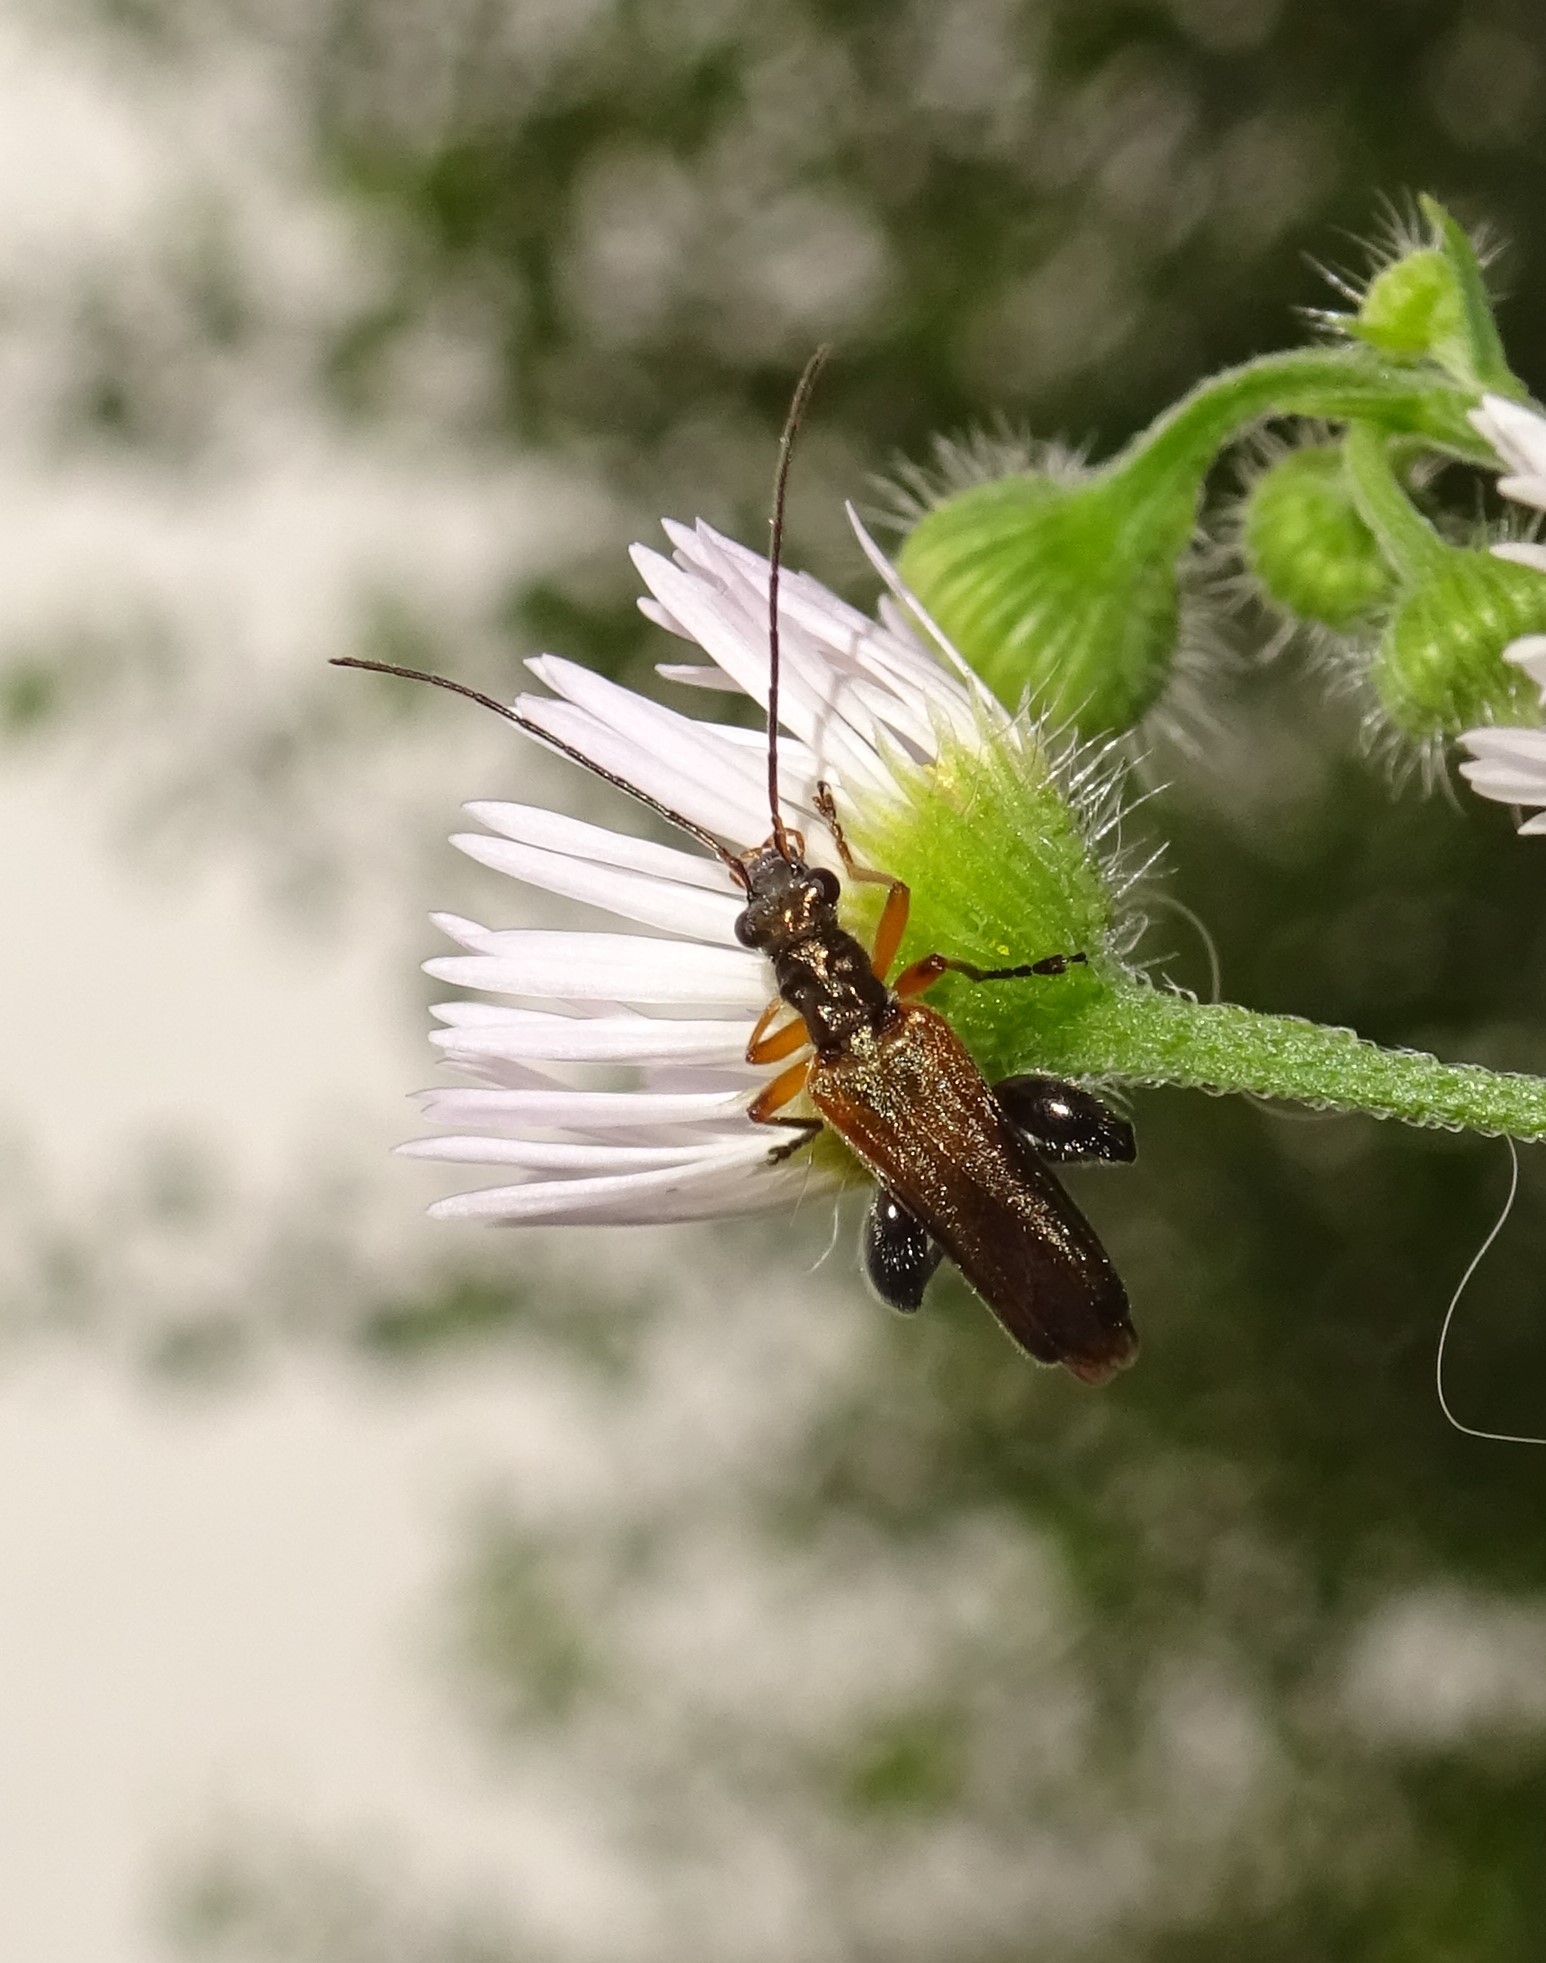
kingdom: Animalia
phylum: Arthropoda
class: Insecta
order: Coleoptera
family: Oedemeridae
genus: Oedemera
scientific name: Oedemera podagrariae
